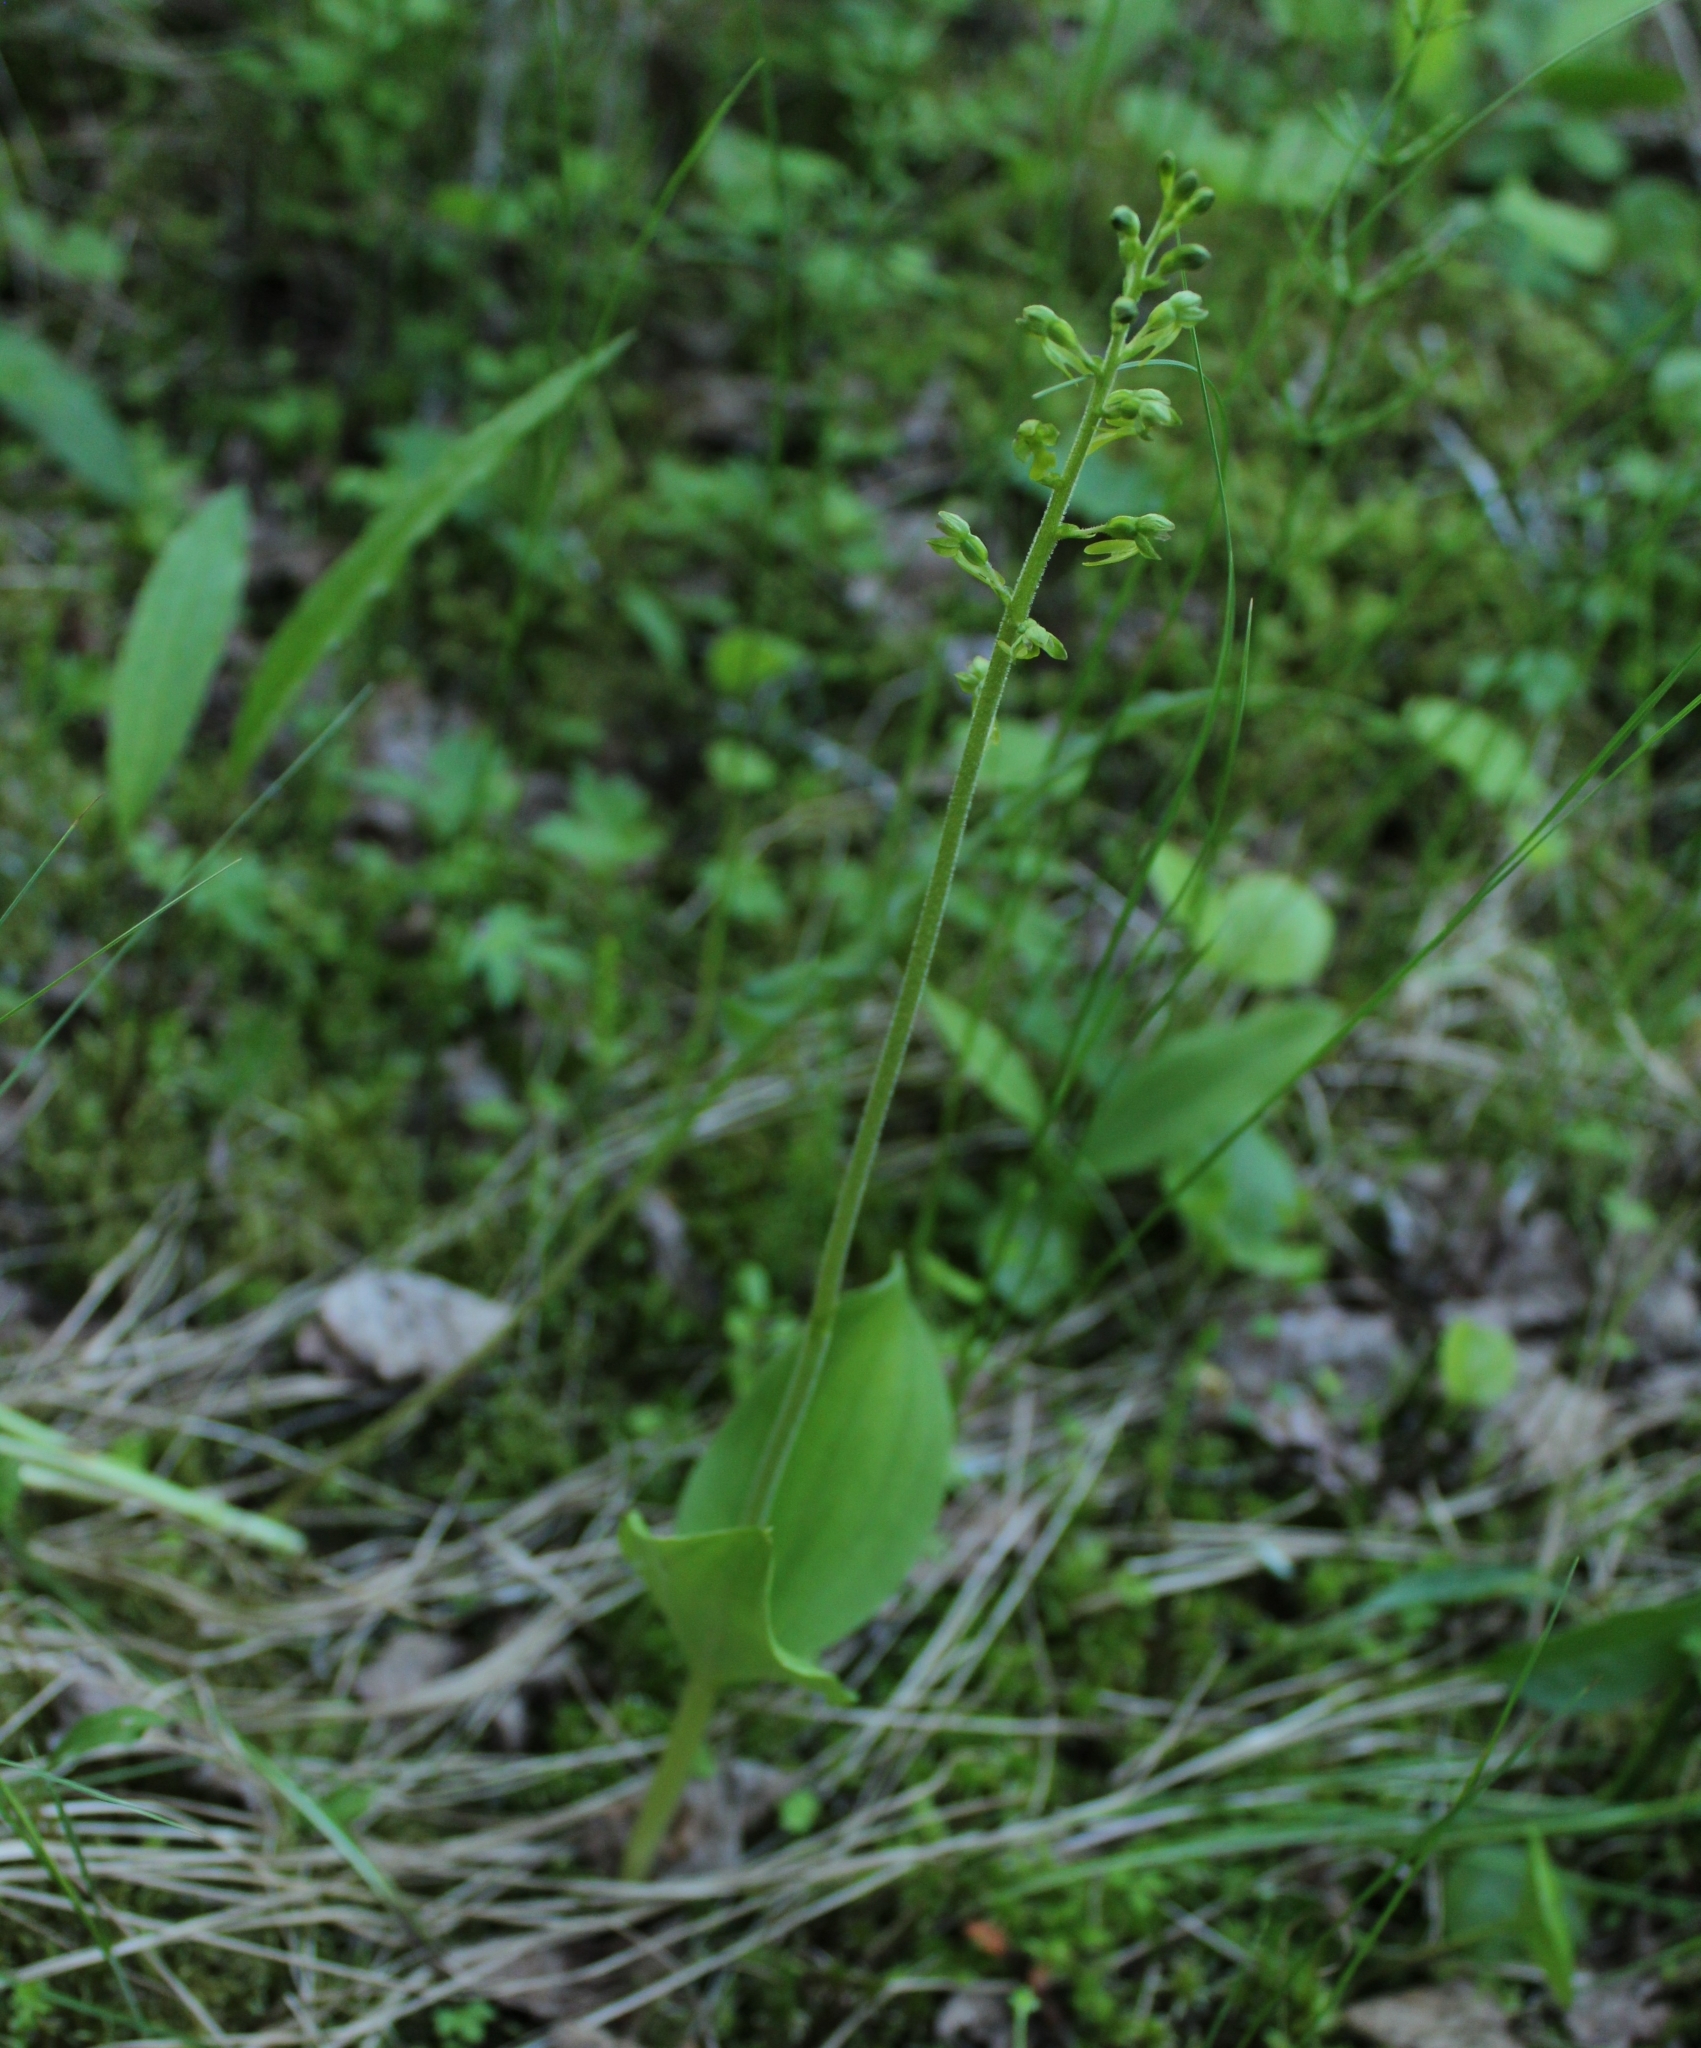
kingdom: Plantae
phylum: Tracheophyta
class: Liliopsida
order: Asparagales
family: Orchidaceae
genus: Neottia
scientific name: Neottia ovata
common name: Common twayblade
